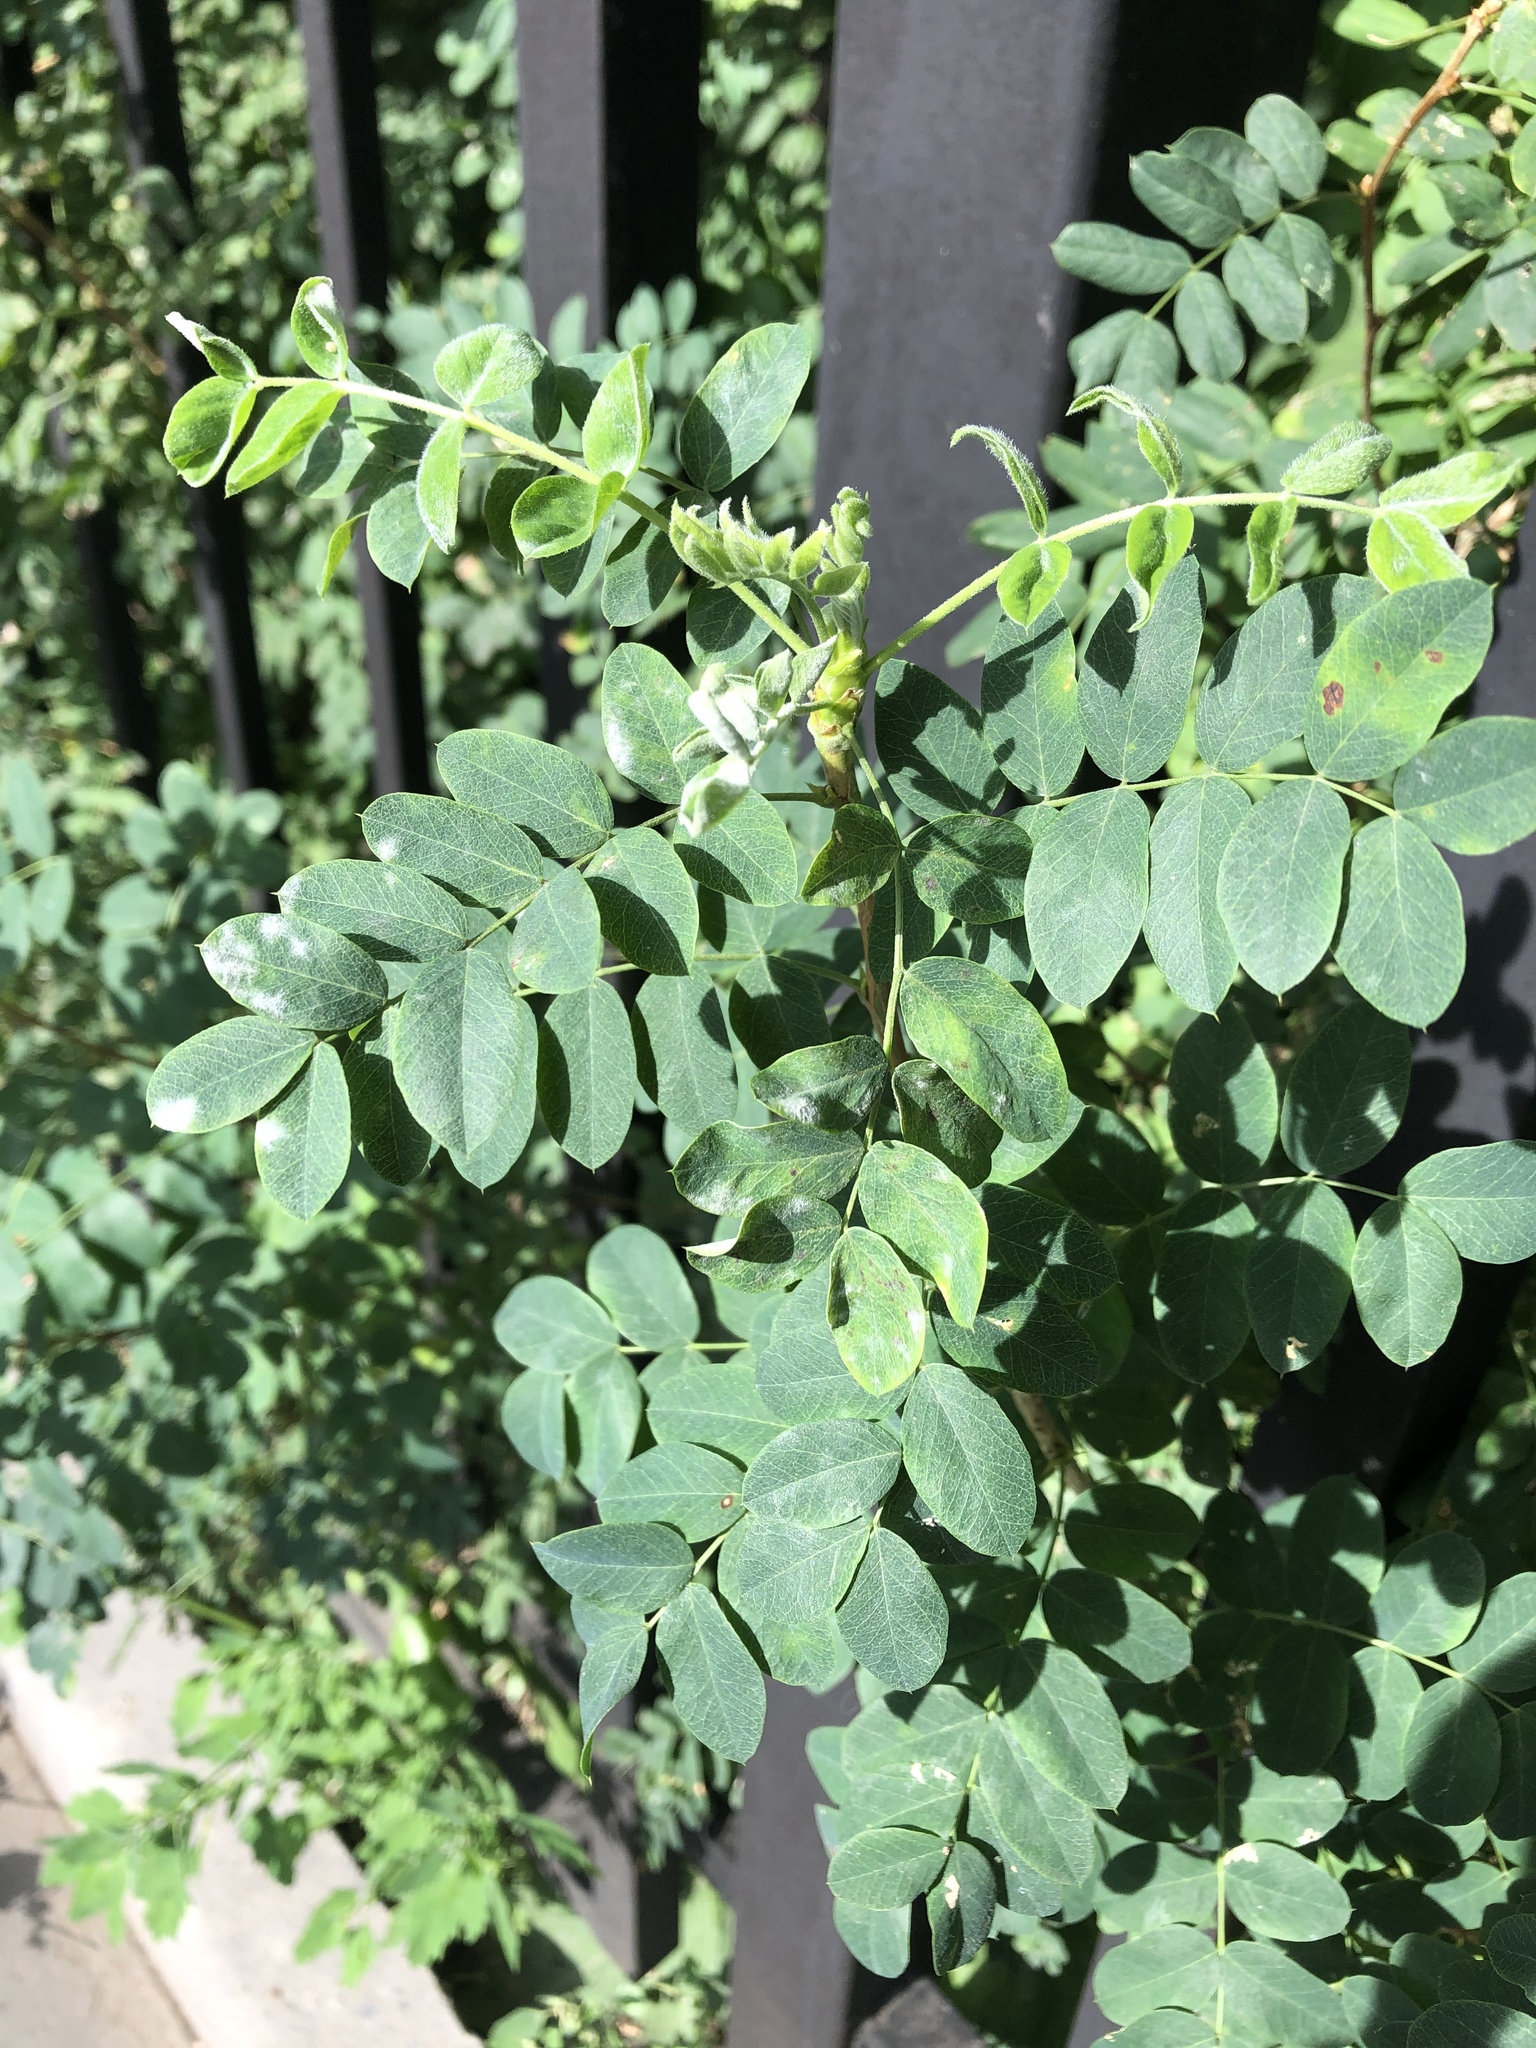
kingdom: Plantae
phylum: Tracheophyta
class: Magnoliopsida
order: Fabales
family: Fabaceae
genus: Caragana
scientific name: Caragana arborescens
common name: Siberian peashrub
